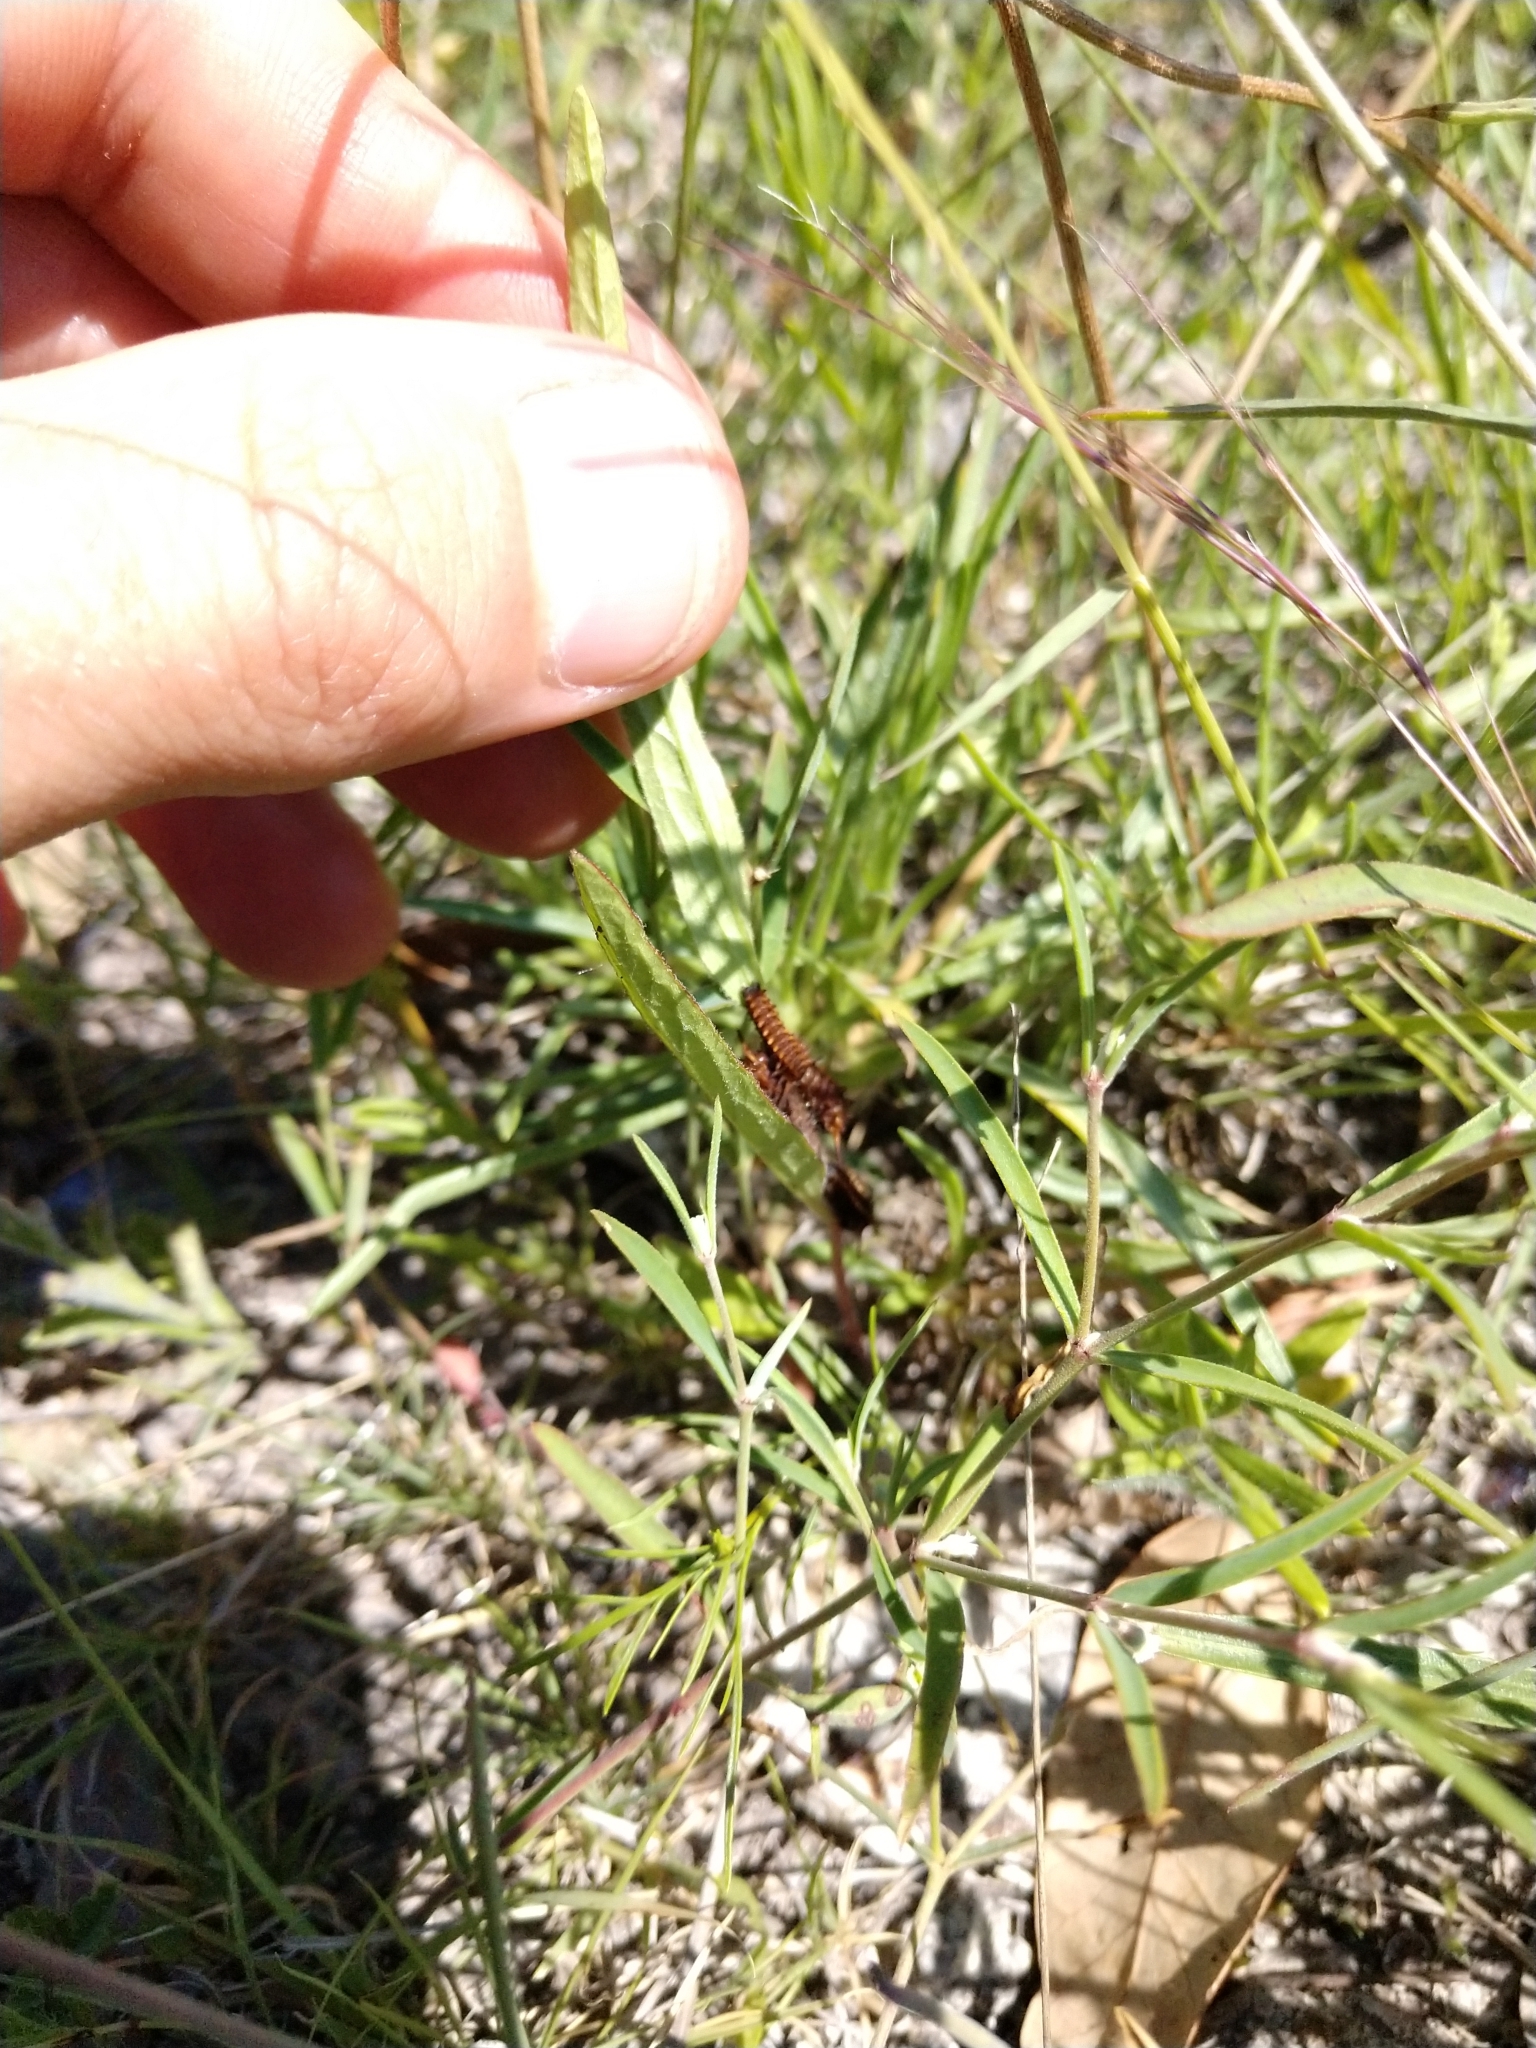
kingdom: Animalia
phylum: Arthropoda
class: Insecta
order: Lepidoptera
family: Papilionidae
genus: Battus
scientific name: Battus philenor
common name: Pipevine swallowtail
